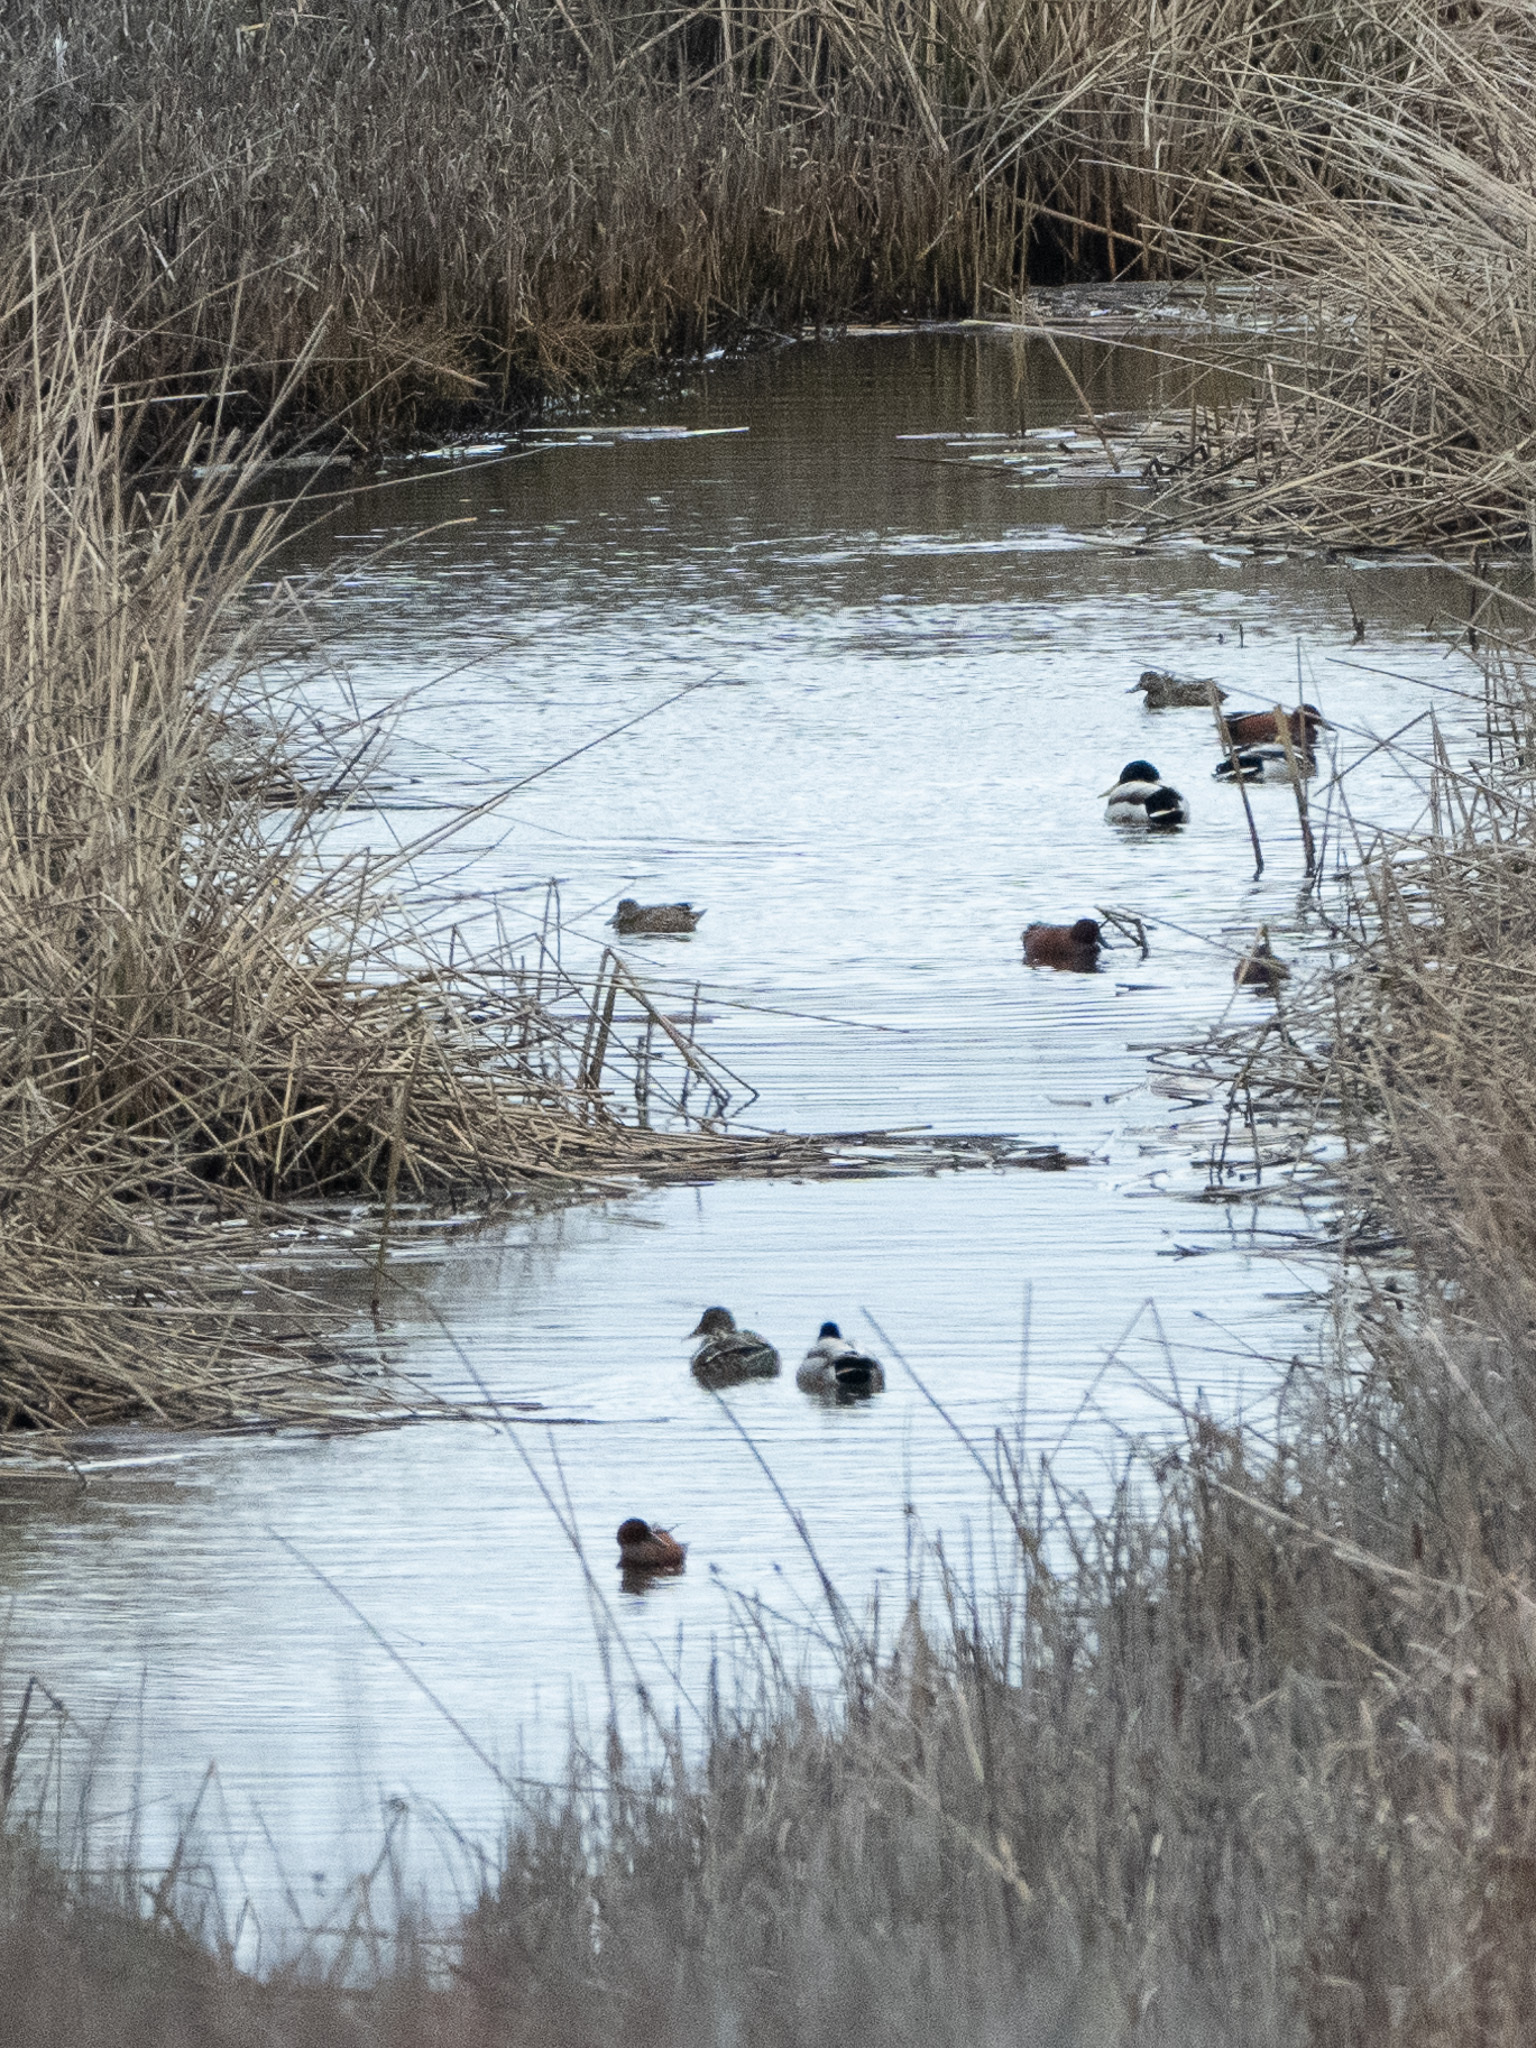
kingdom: Animalia
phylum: Chordata
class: Aves
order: Anseriformes
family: Anatidae
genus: Spatula
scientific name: Spatula cyanoptera
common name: Cinnamon teal
